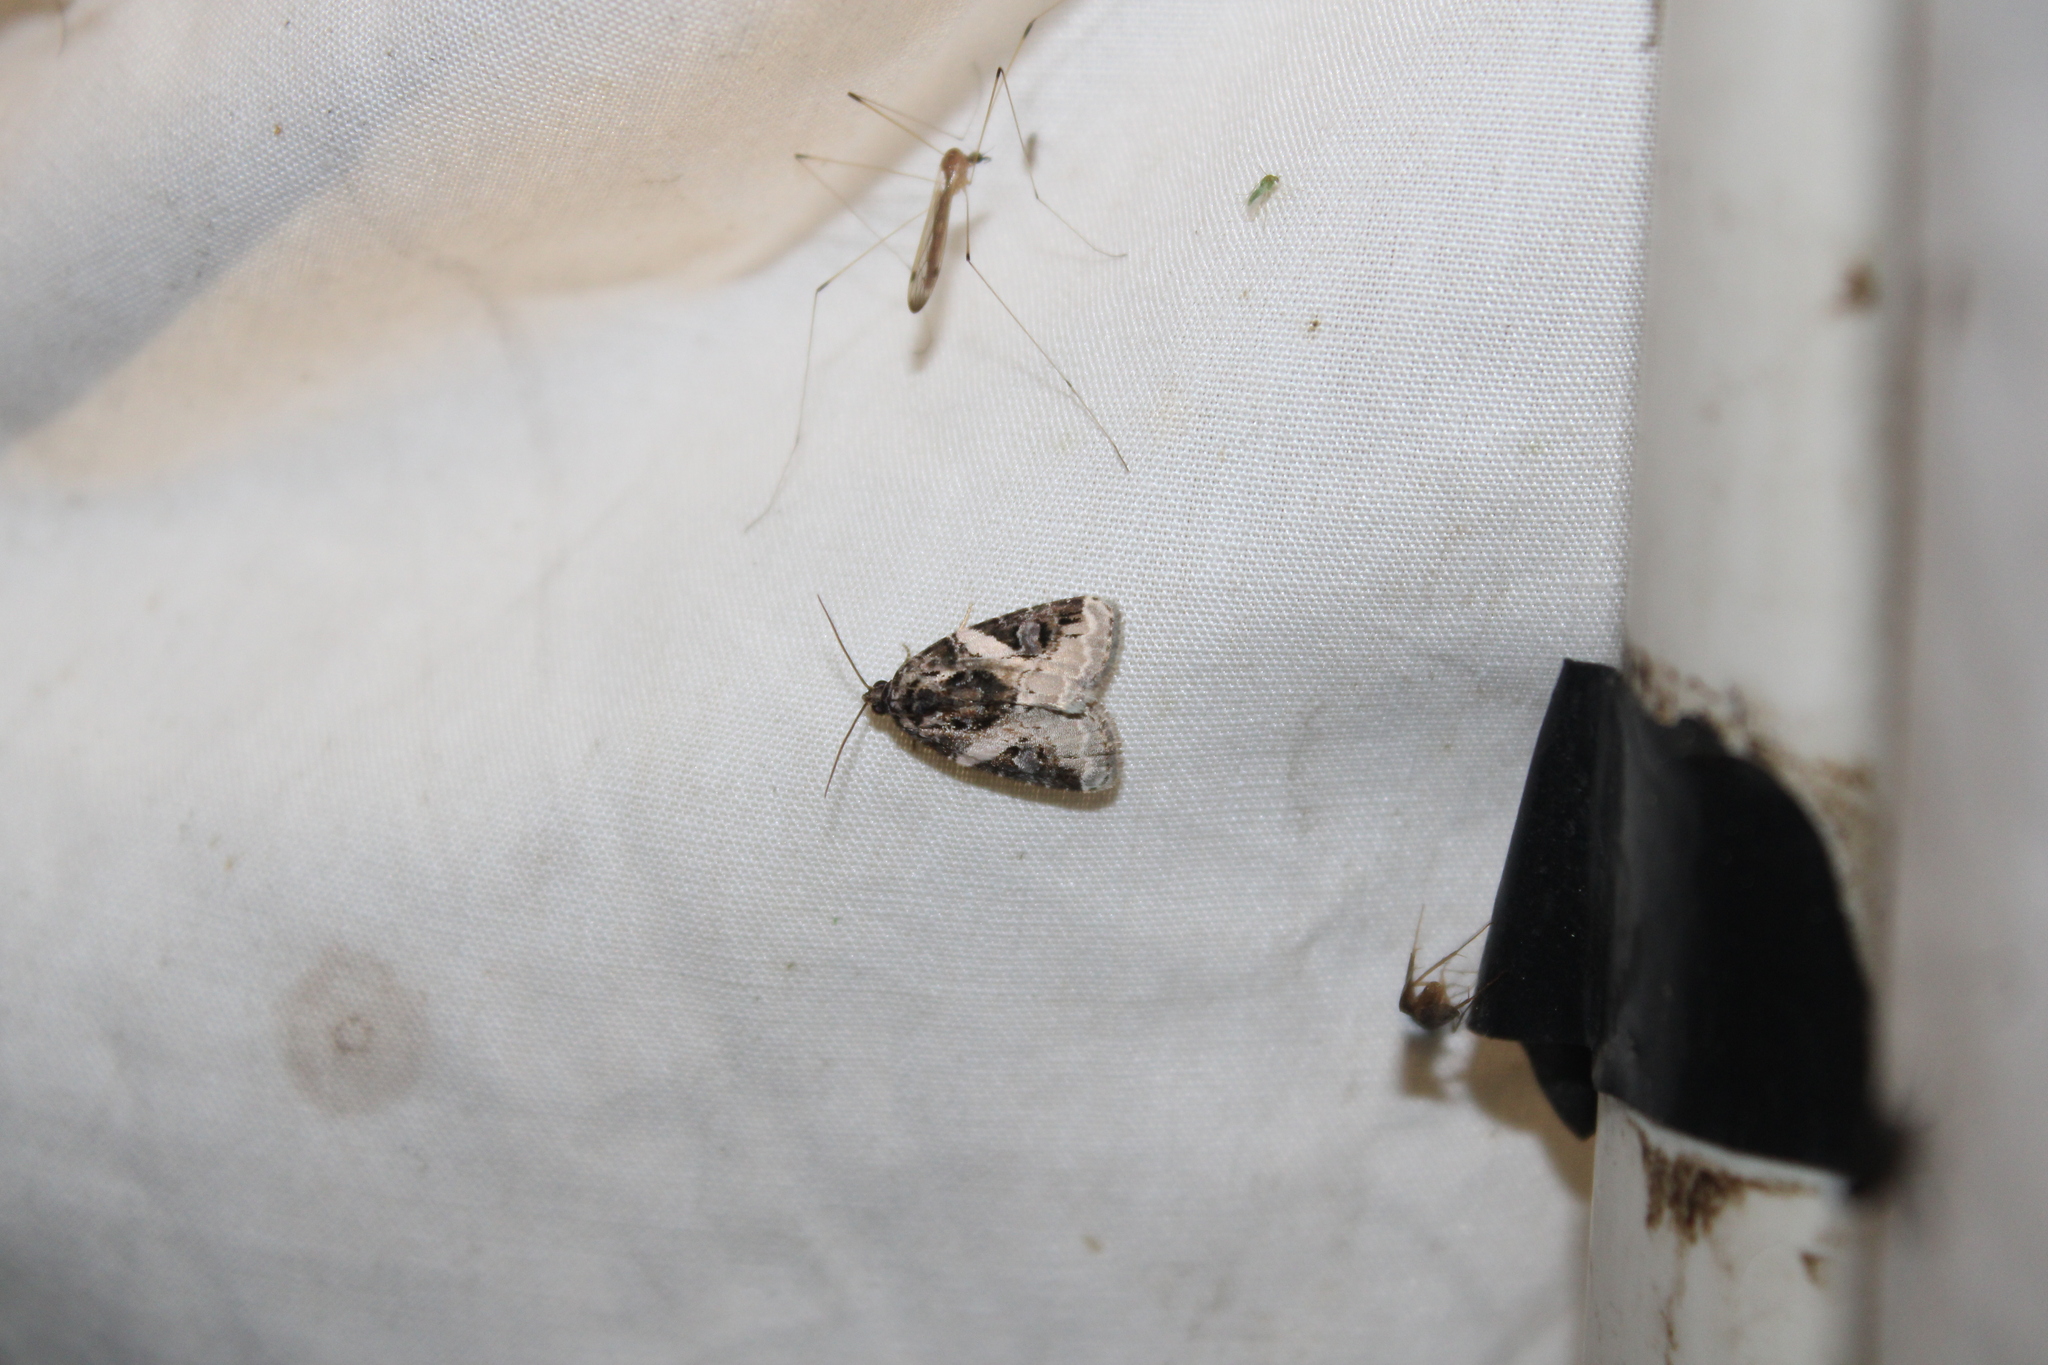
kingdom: Animalia
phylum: Arthropoda
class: Insecta
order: Lepidoptera
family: Noctuidae
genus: Pseudeustrotia
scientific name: Pseudeustrotia carneola
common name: Pink-barred lithacodia moth
